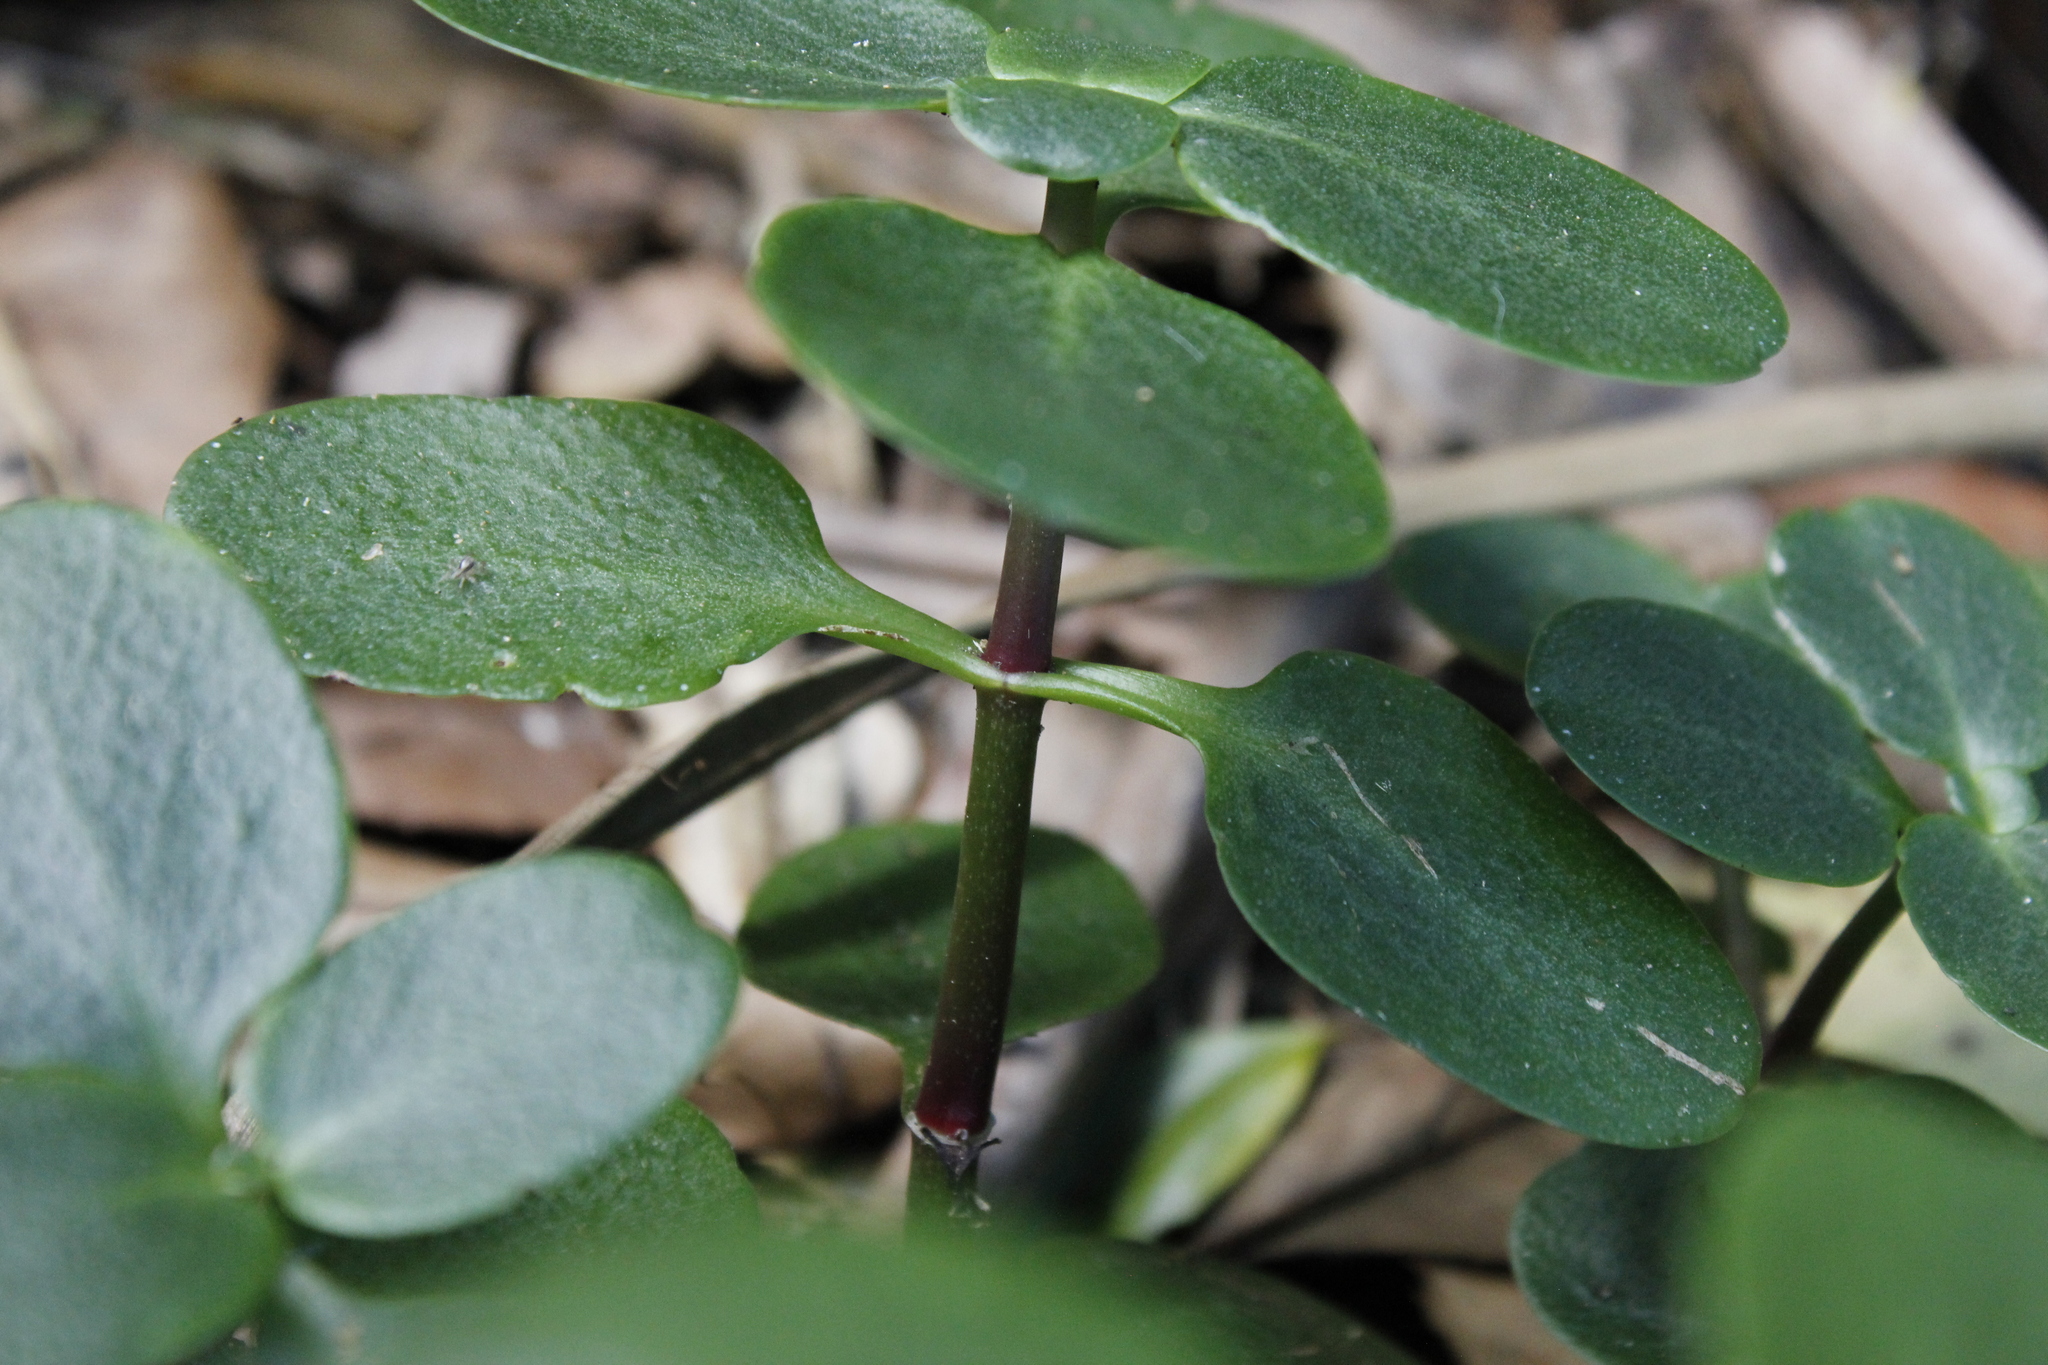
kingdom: Plantae
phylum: Tracheophyta
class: Magnoliopsida
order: Saxifragales
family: Crassulaceae
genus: Crassula
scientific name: Crassula multicava
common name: Cape province pygmyweed
